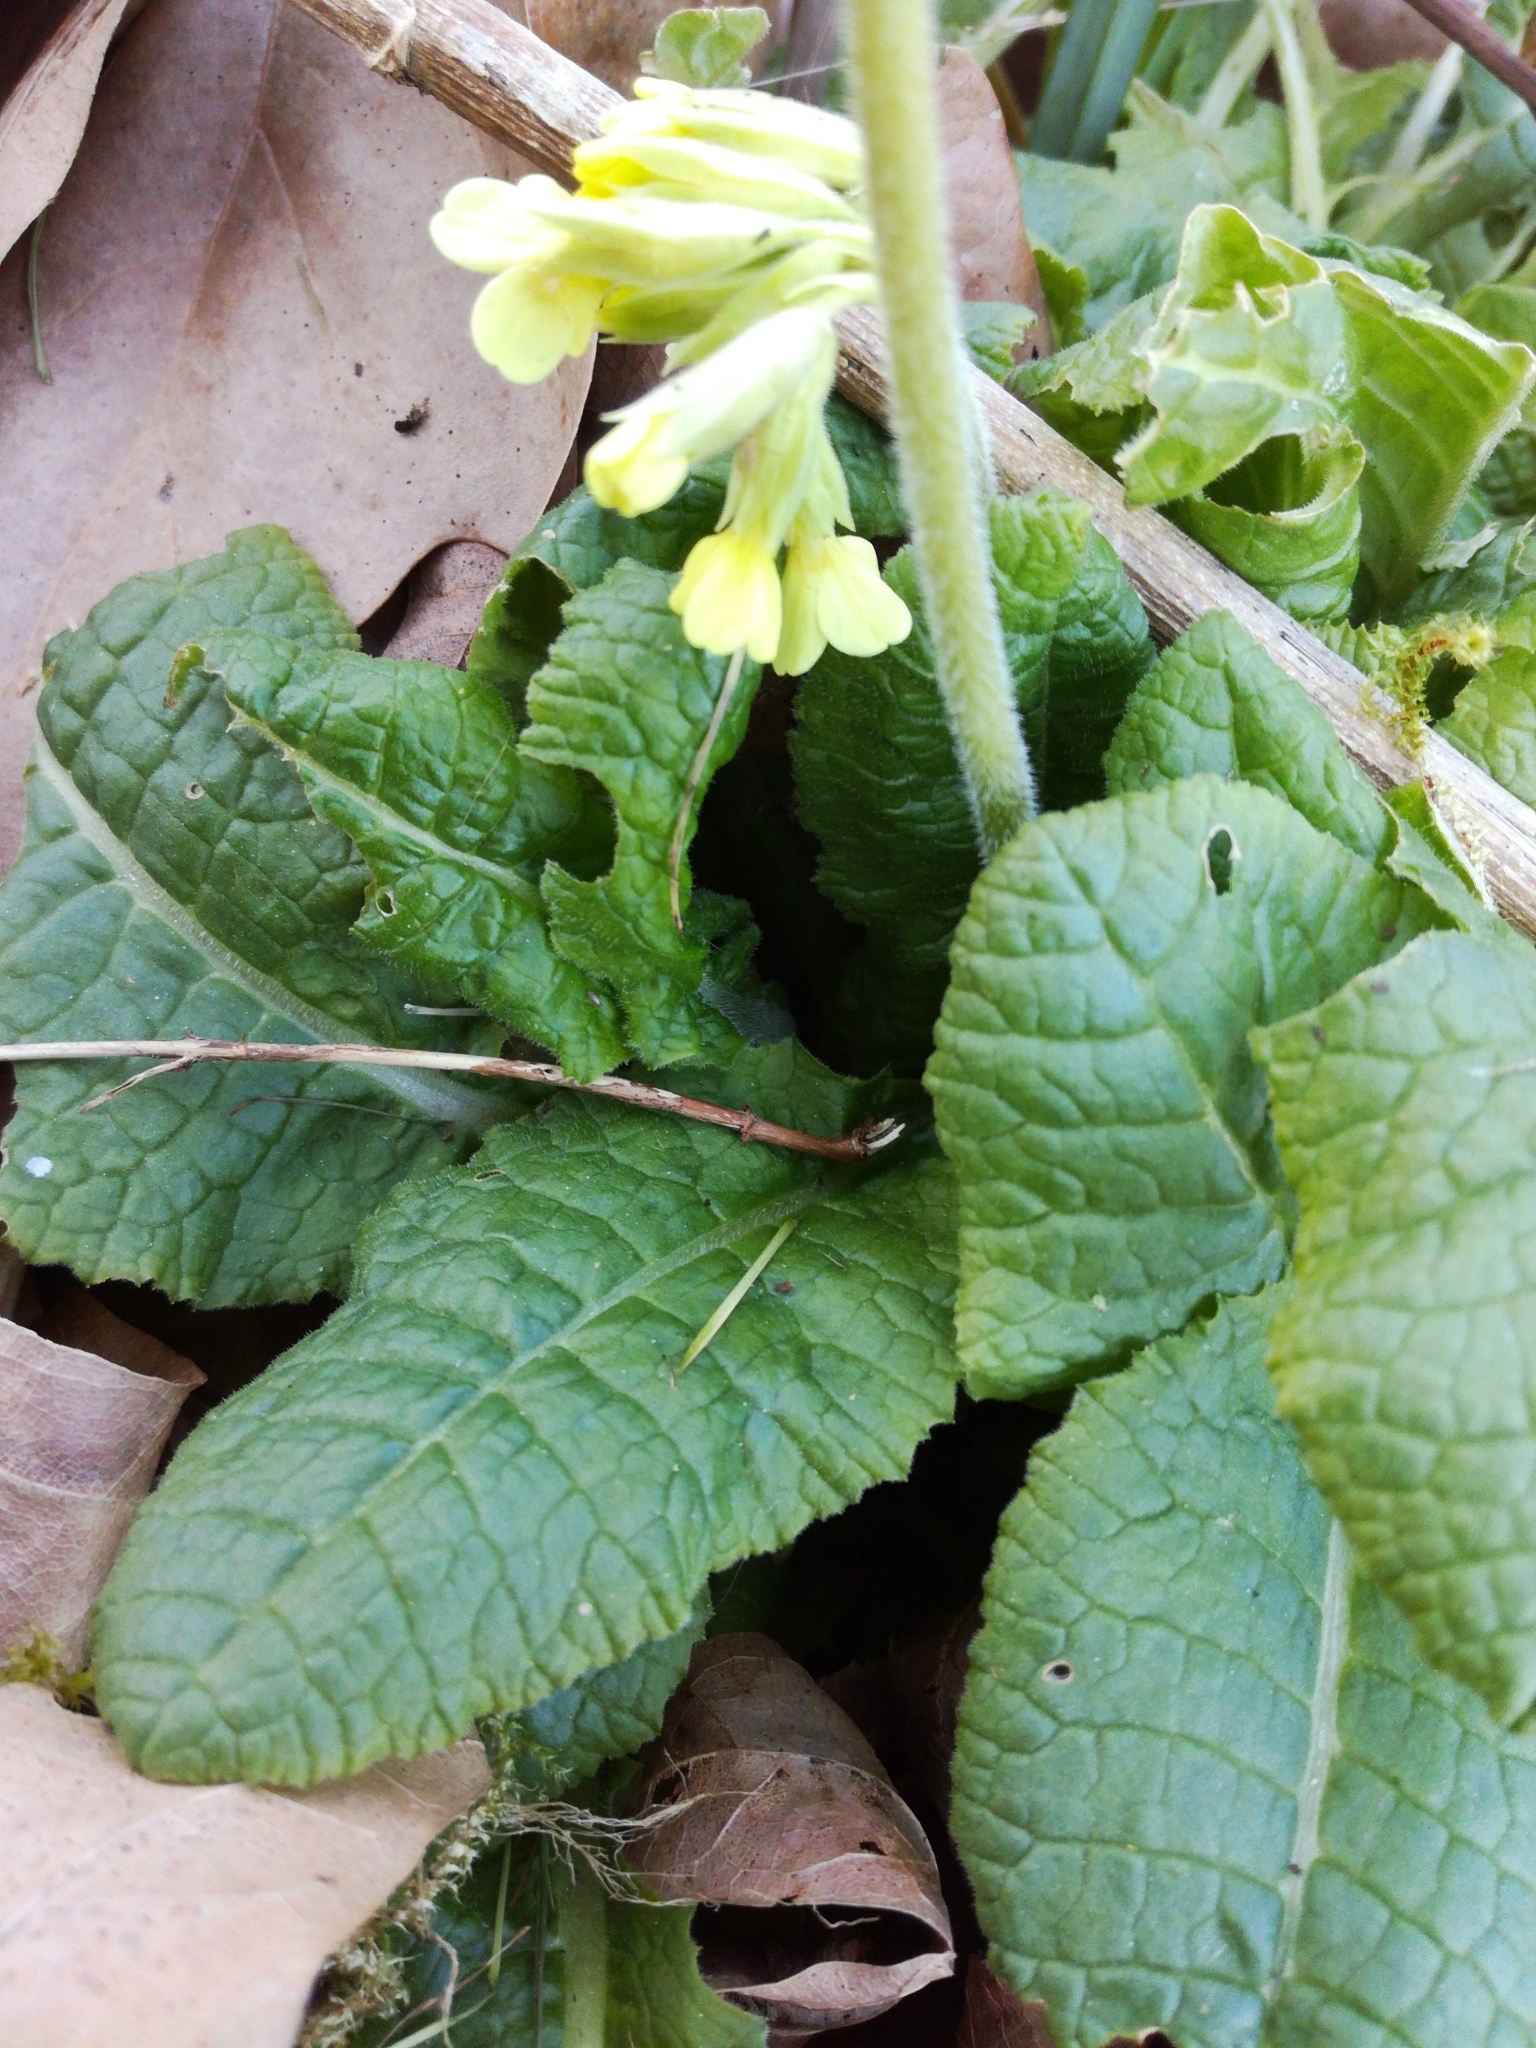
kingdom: Plantae
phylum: Tracheophyta
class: Magnoliopsida
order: Ericales
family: Primulaceae
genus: Primula
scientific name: Primula elatior
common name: Oxlip
